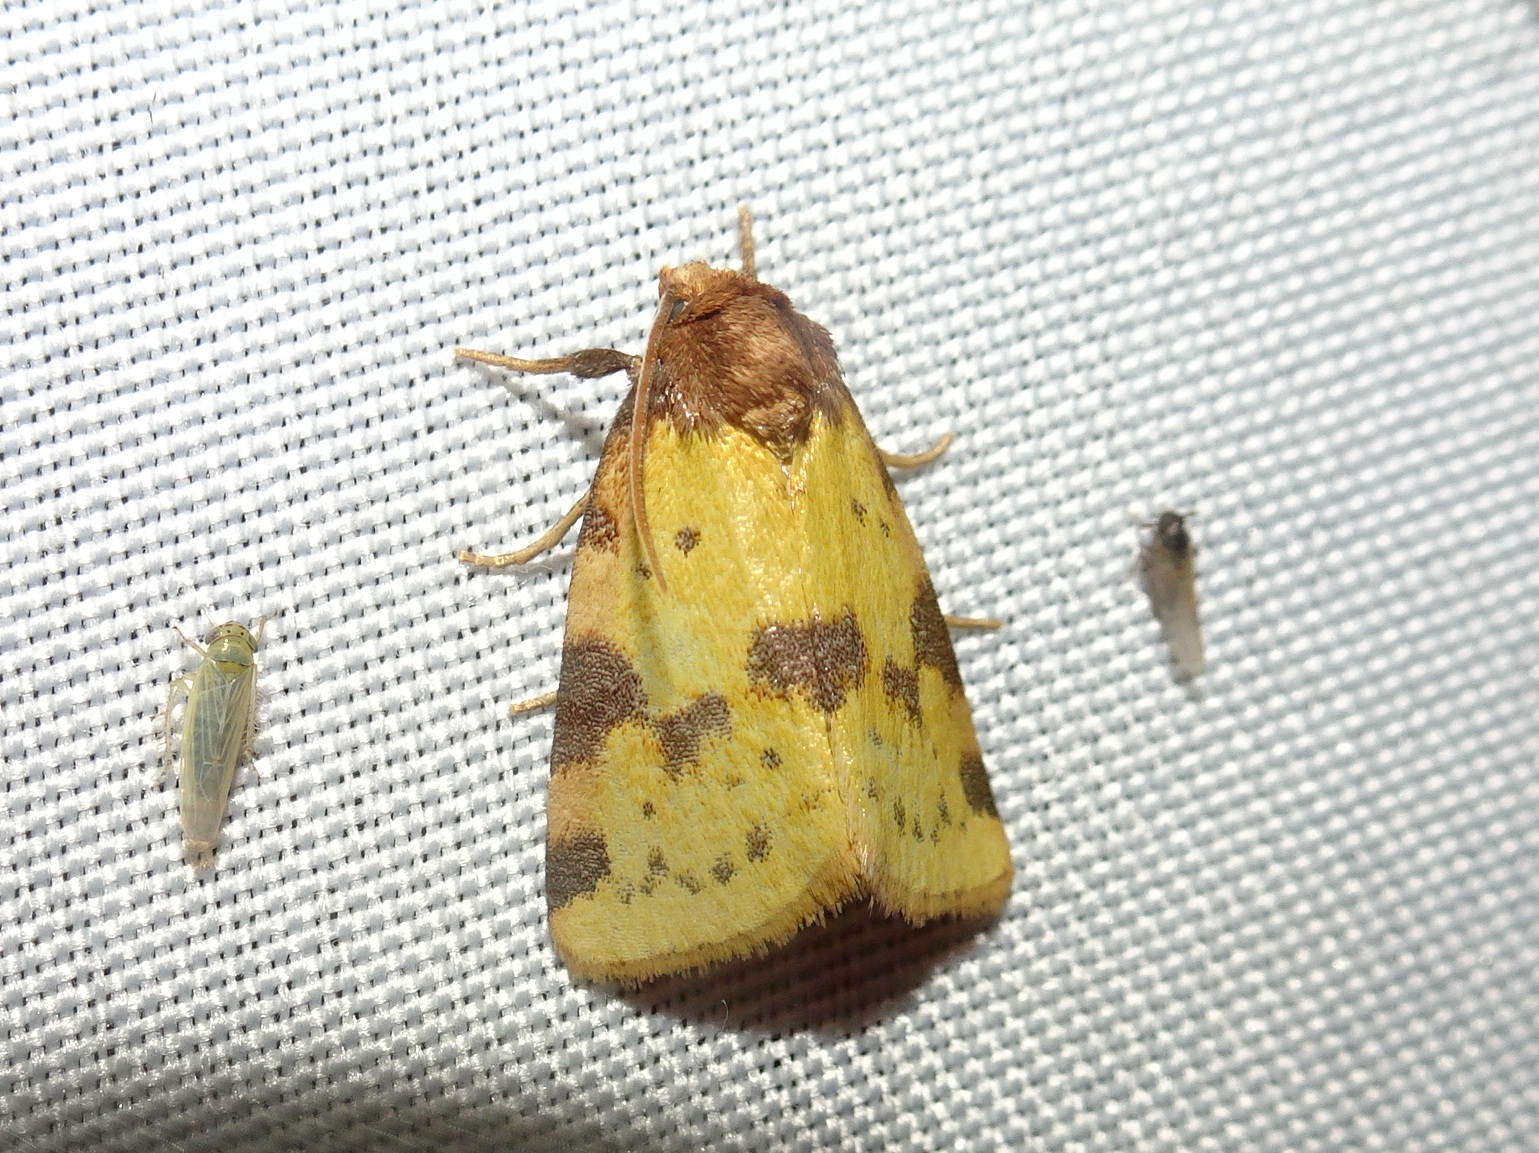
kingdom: Animalia
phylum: Arthropoda
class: Insecta
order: Lepidoptera
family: Noctuidae
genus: Azenia
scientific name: Azenia obtusa
